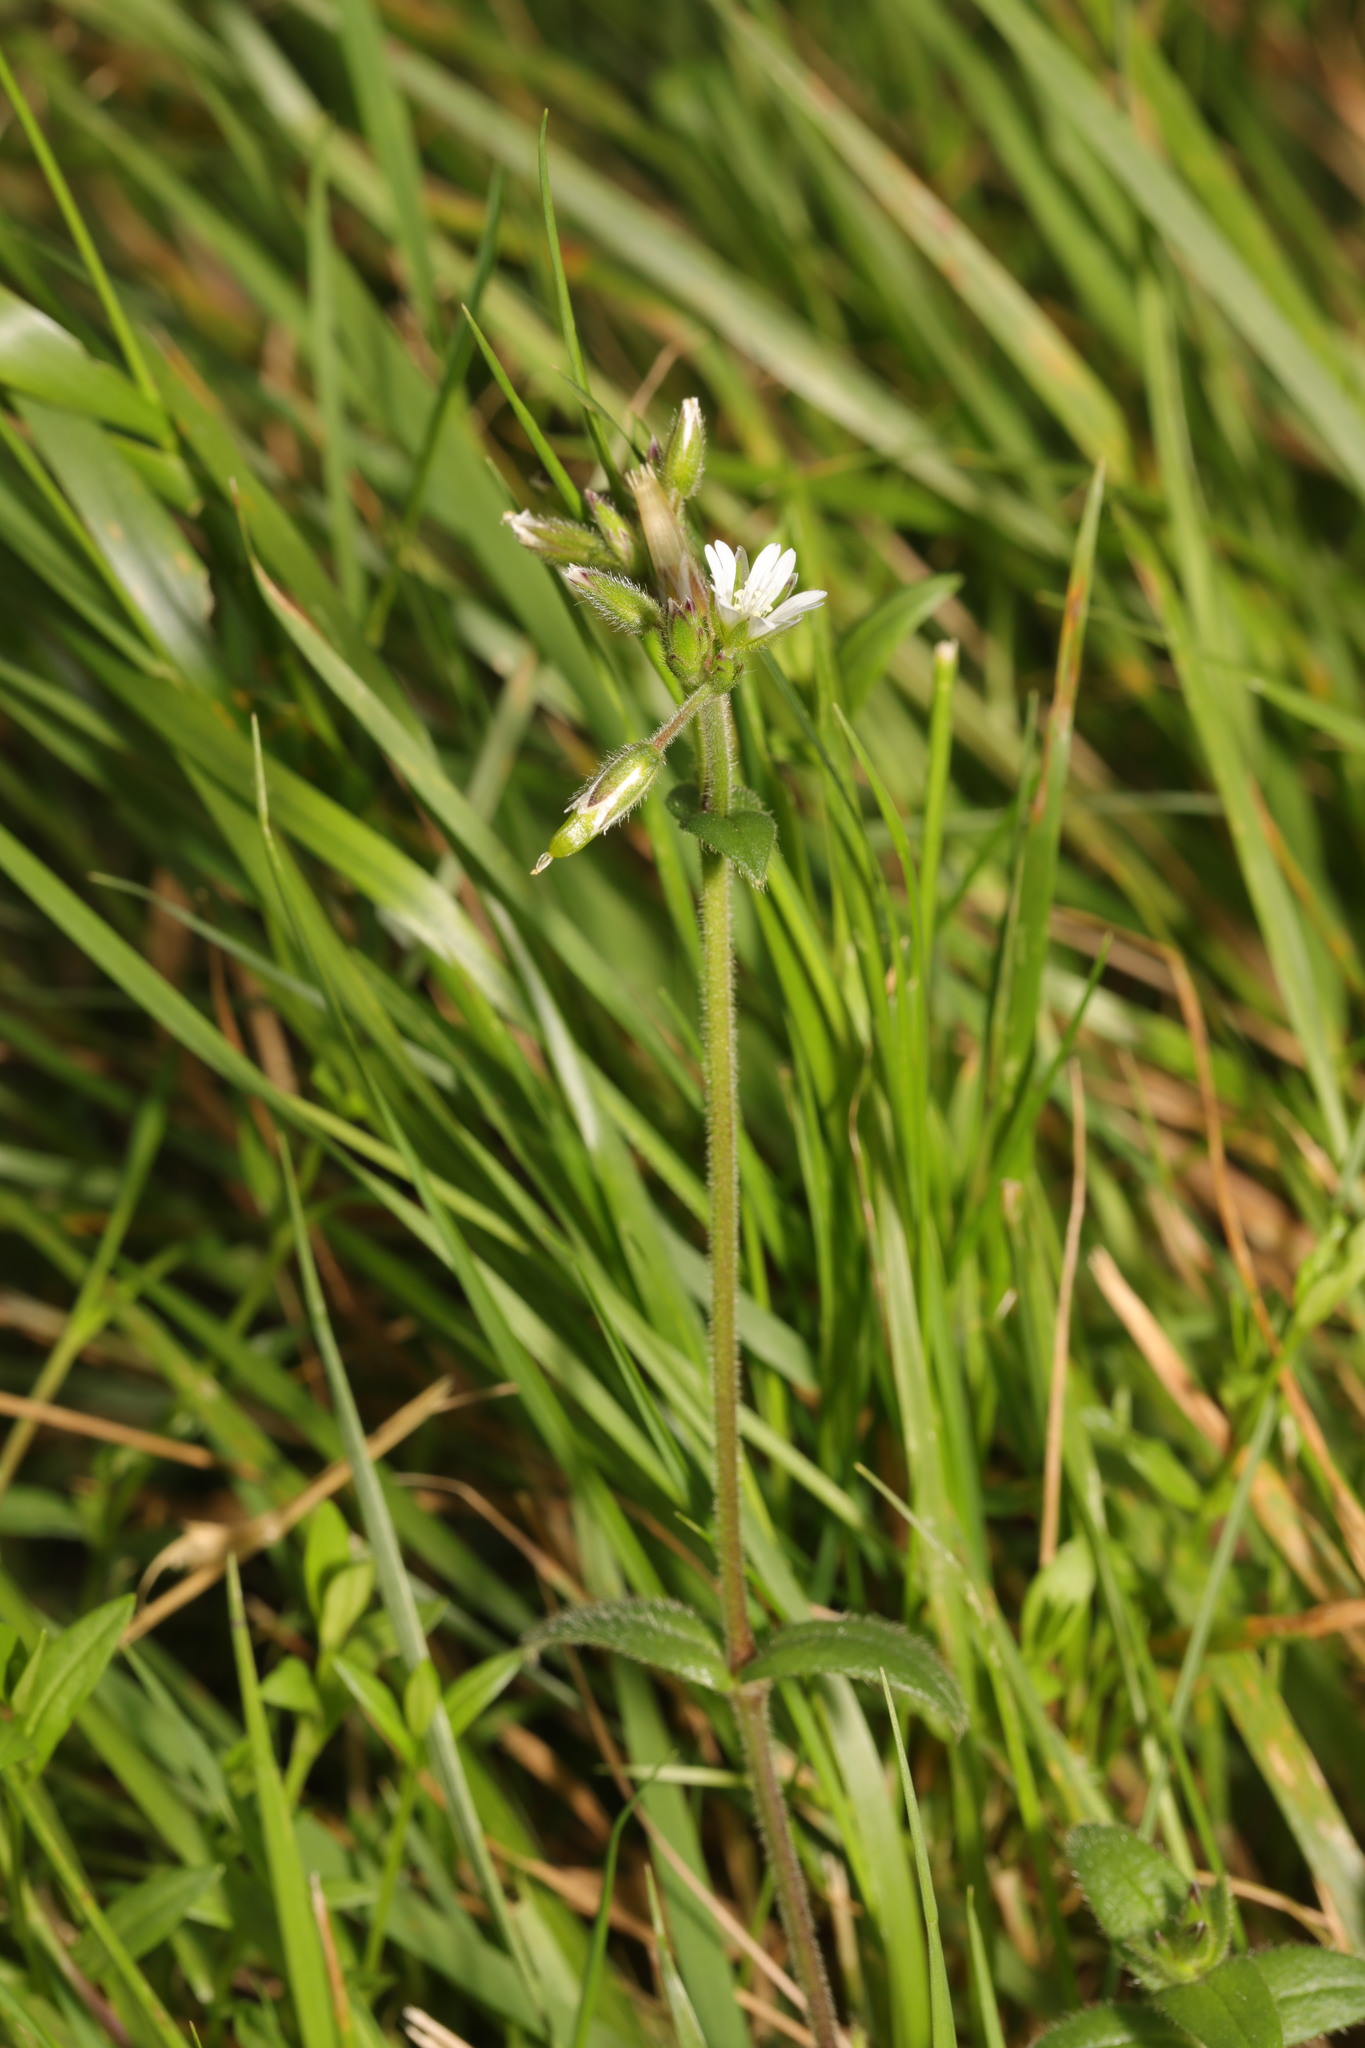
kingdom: Plantae
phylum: Tracheophyta
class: Magnoliopsida
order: Caryophyllales
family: Caryophyllaceae
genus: Cerastium
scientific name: Cerastium fontanum
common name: Common mouse-ear
